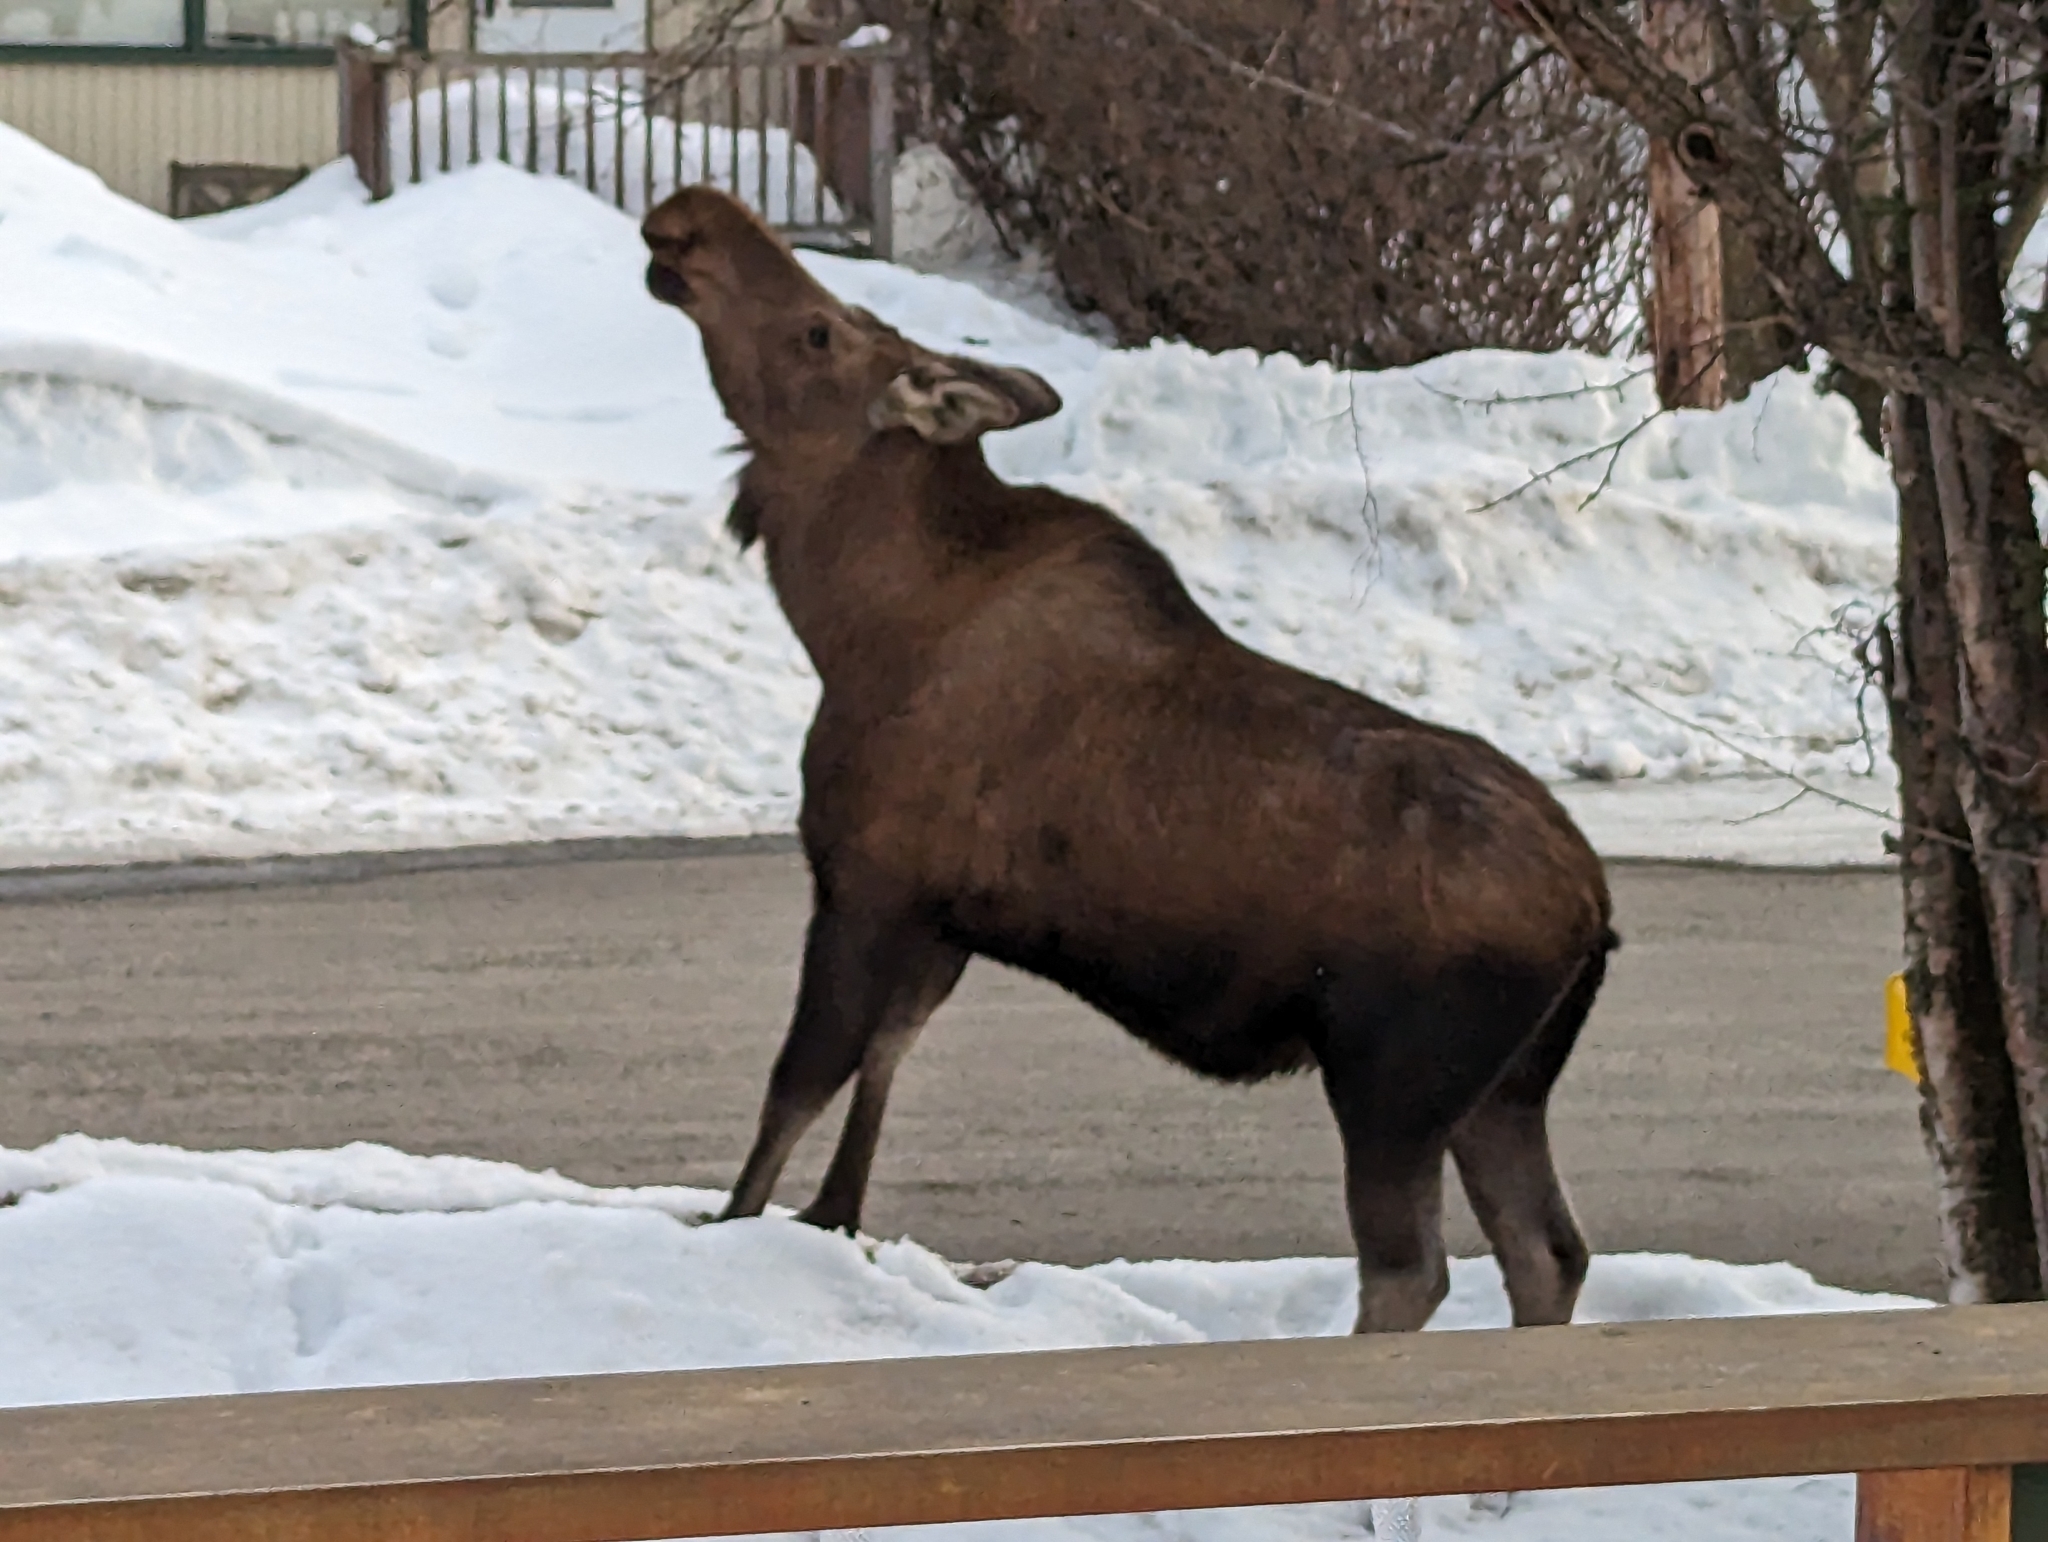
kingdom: Animalia
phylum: Chordata
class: Mammalia
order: Artiodactyla
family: Cervidae
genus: Alces
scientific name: Alces alces
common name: Moose
